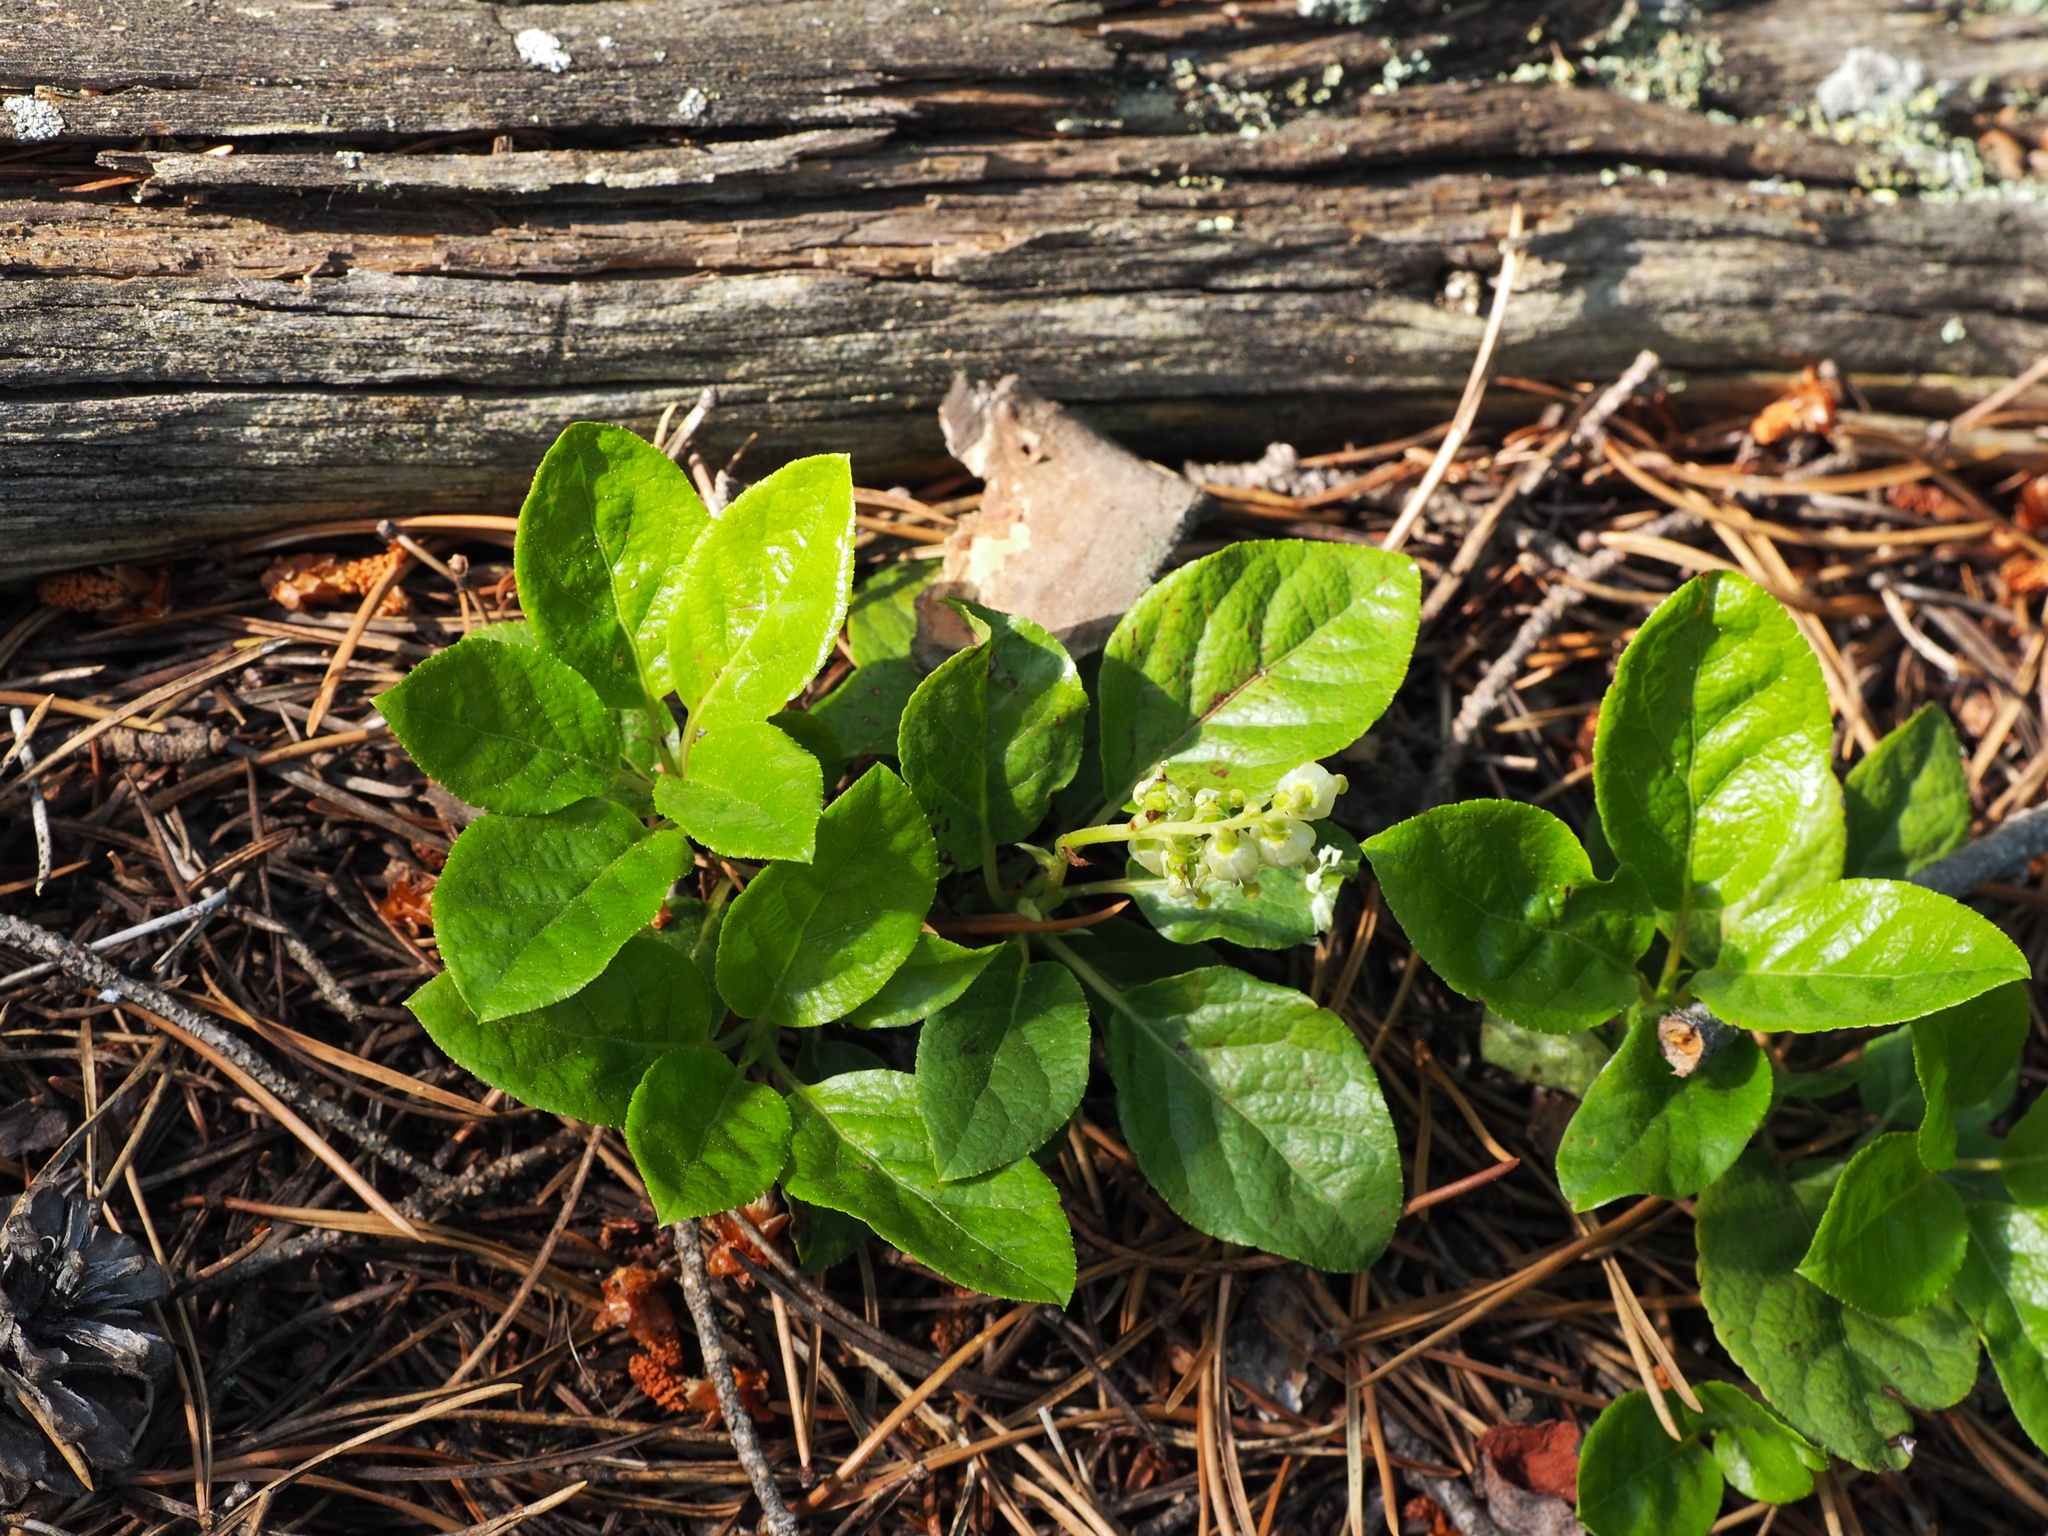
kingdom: Plantae
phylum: Tracheophyta
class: Magnoliopsida
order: Ericales
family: Ericaceae
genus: Orthilia
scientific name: Orthilia secunda
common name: One-sided orthilia
